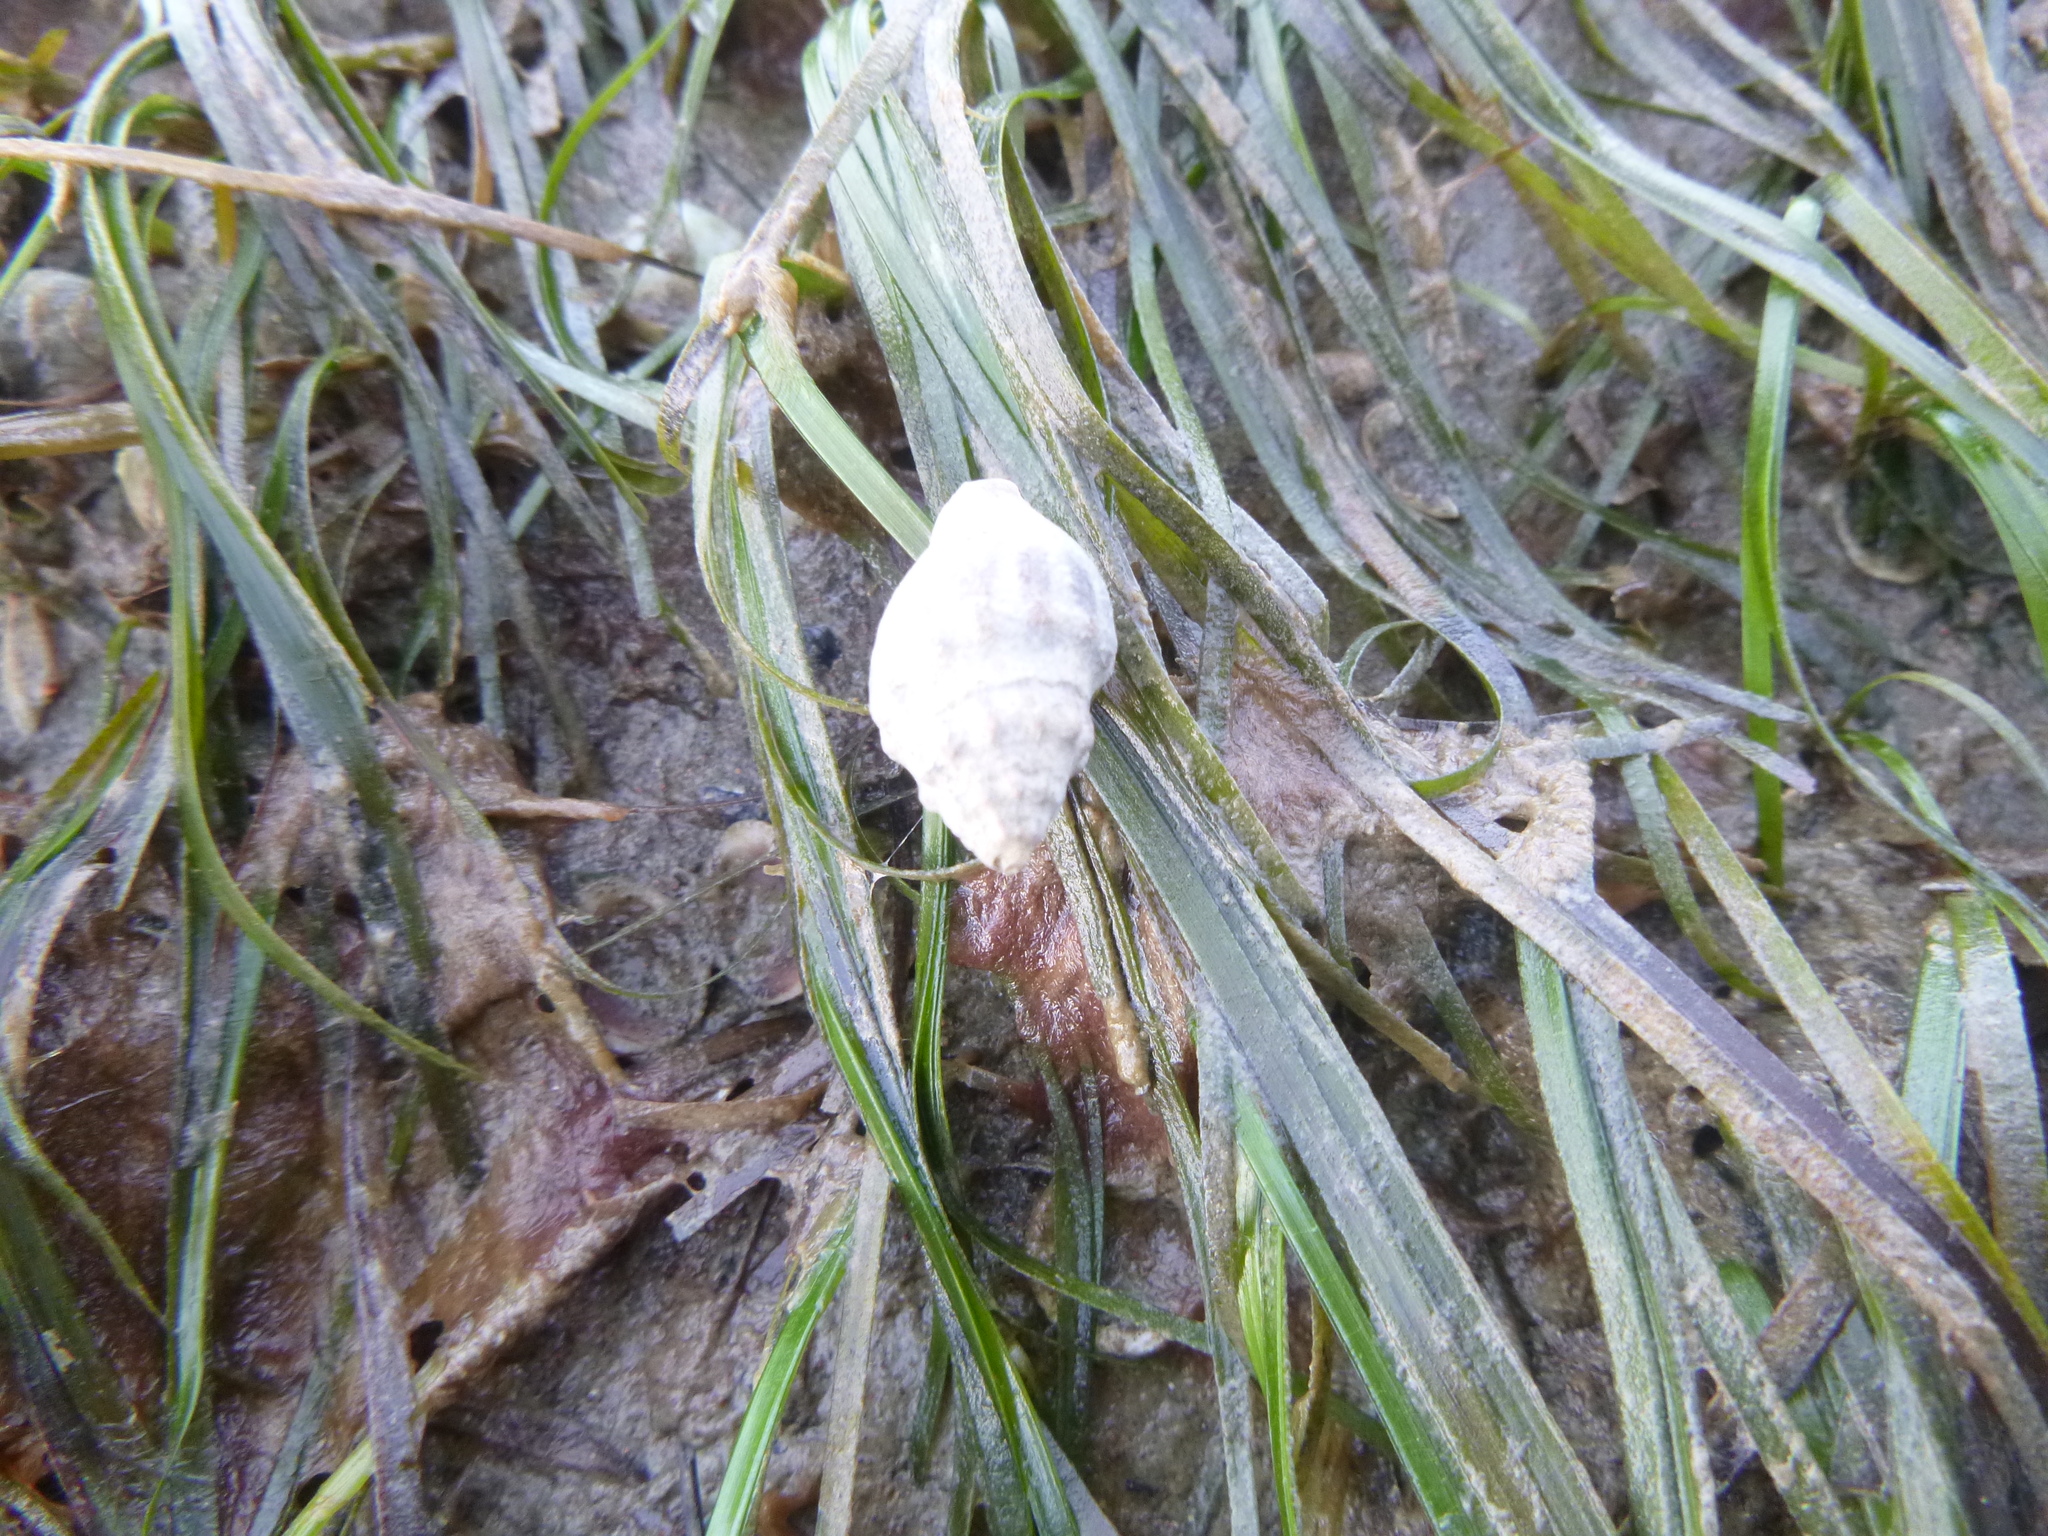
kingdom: Animalia
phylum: Mollusca
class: Gastropoda
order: Neogastropoda
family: Cominellidae
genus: Cominella
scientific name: Cominella glandiformis
